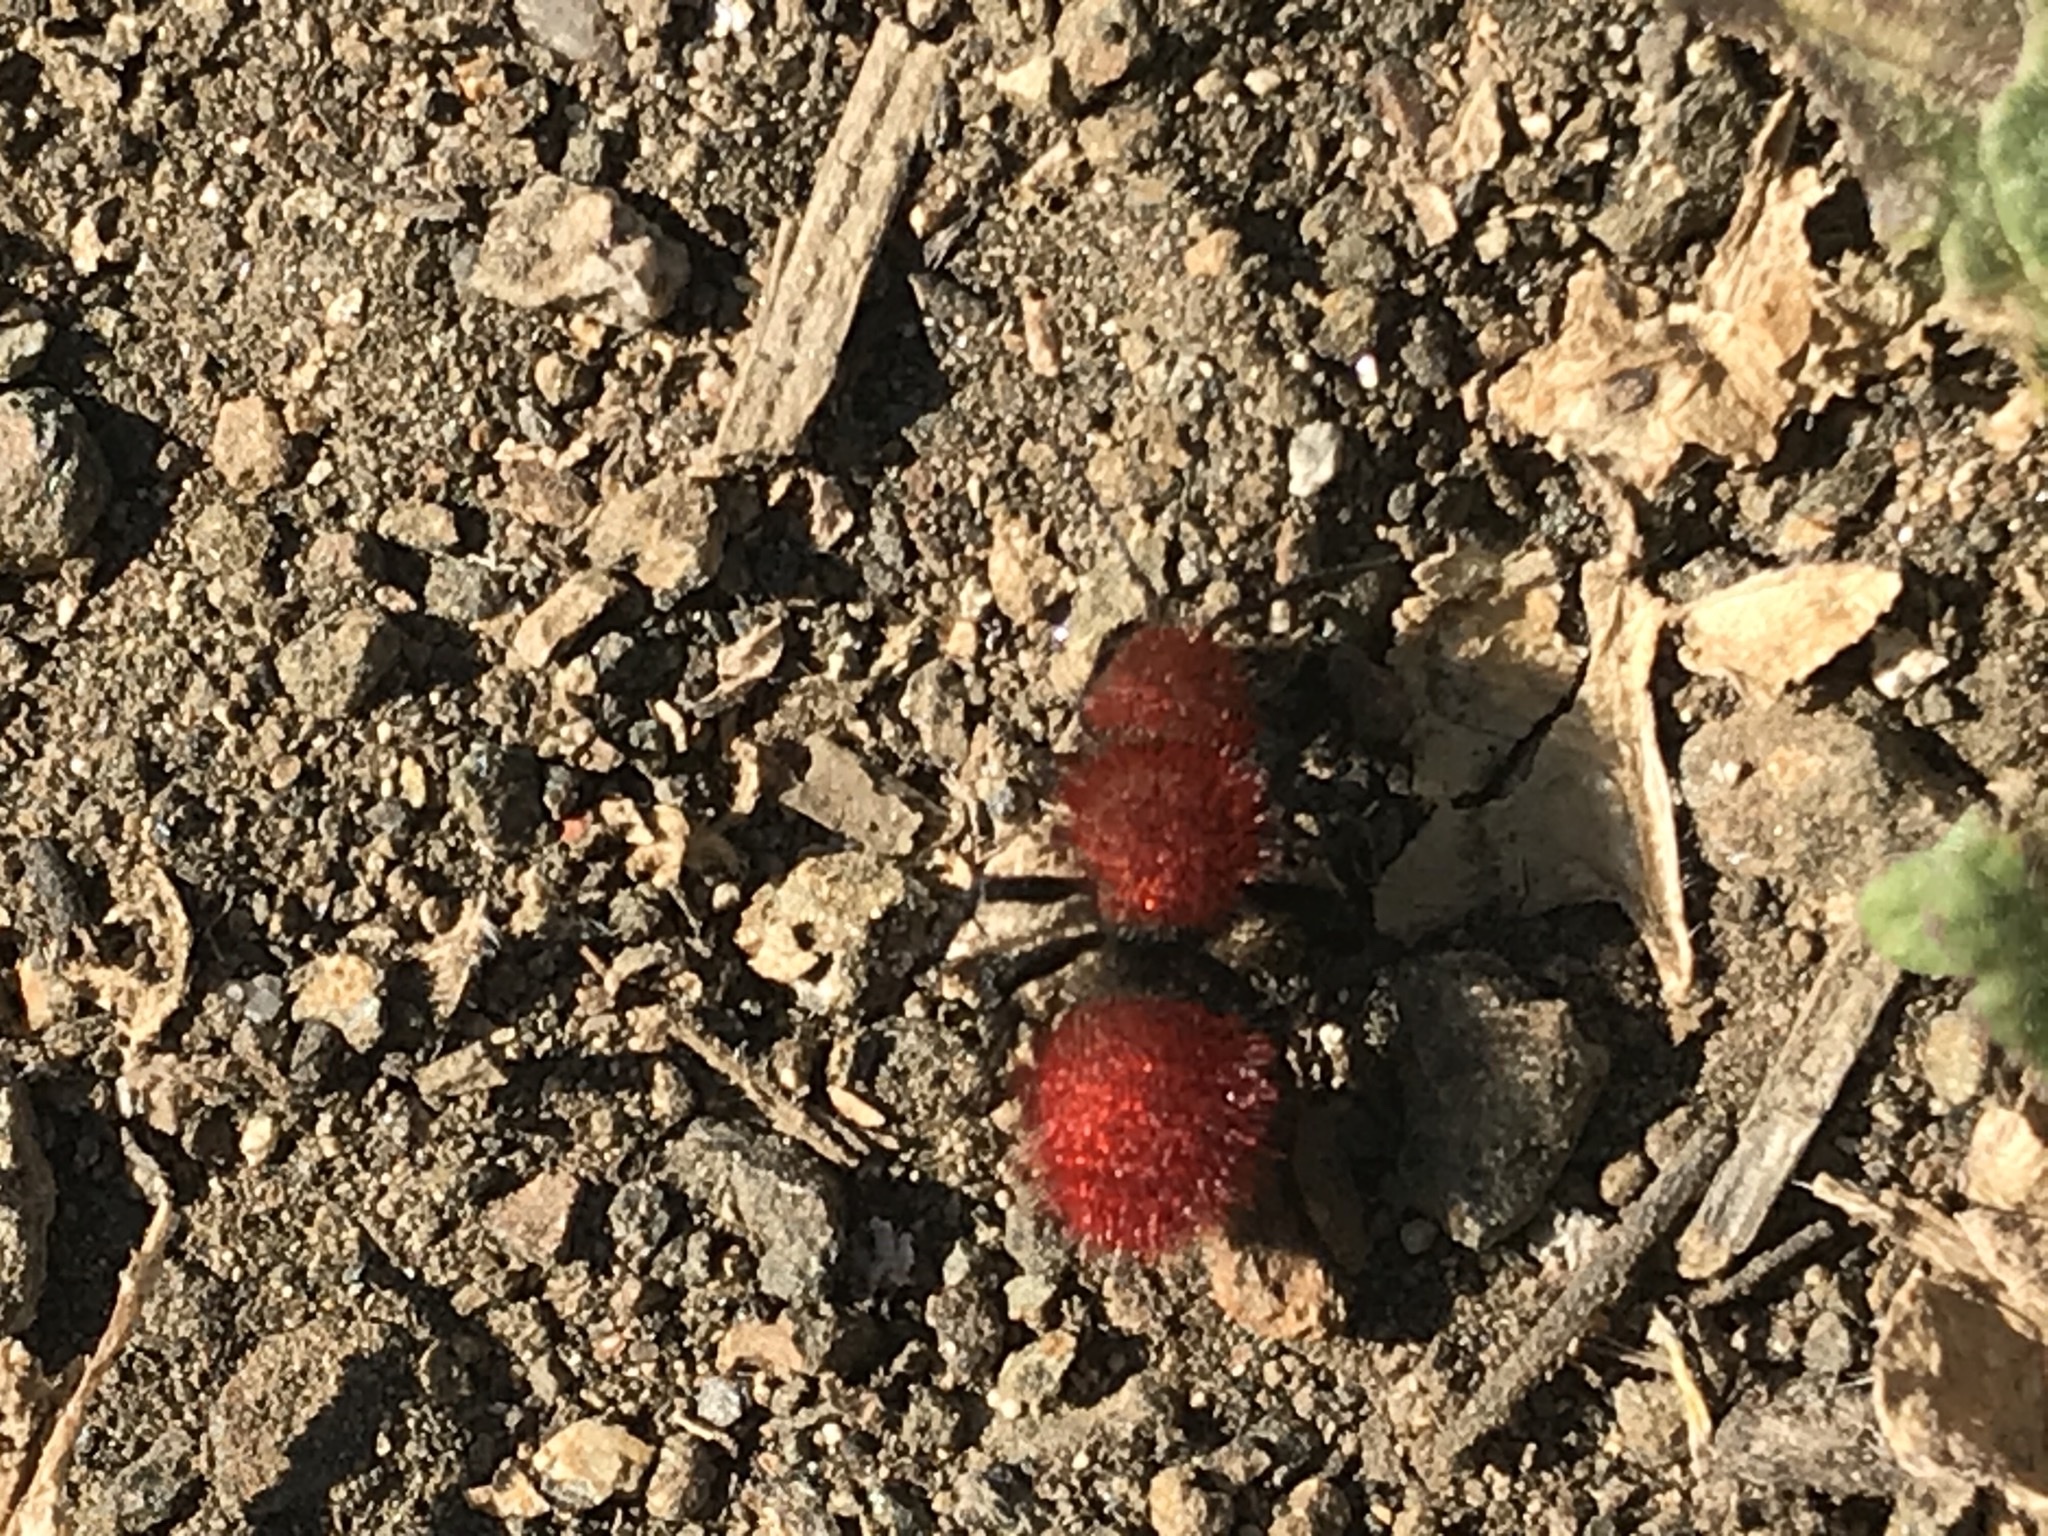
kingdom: Animalia
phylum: Arthropoda
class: Insecta
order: Hymenoptera
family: Mutillidae
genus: Dasymutilla
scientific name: Dasymutilla
